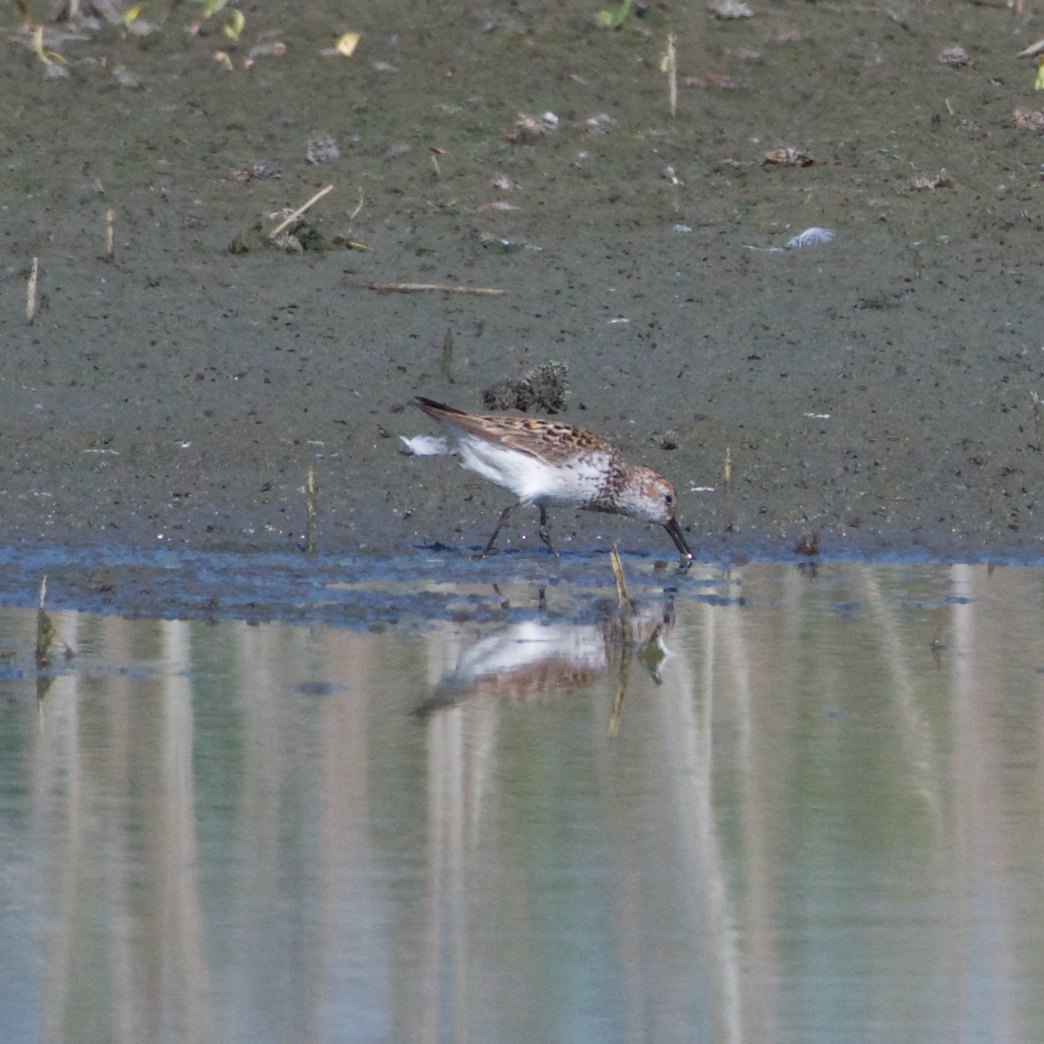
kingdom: Animalia
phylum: Chordata
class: Aves
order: Charadriiformes
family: Scolopacidae
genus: Calidris
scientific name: Calidris mauri
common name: Western sandpiper
